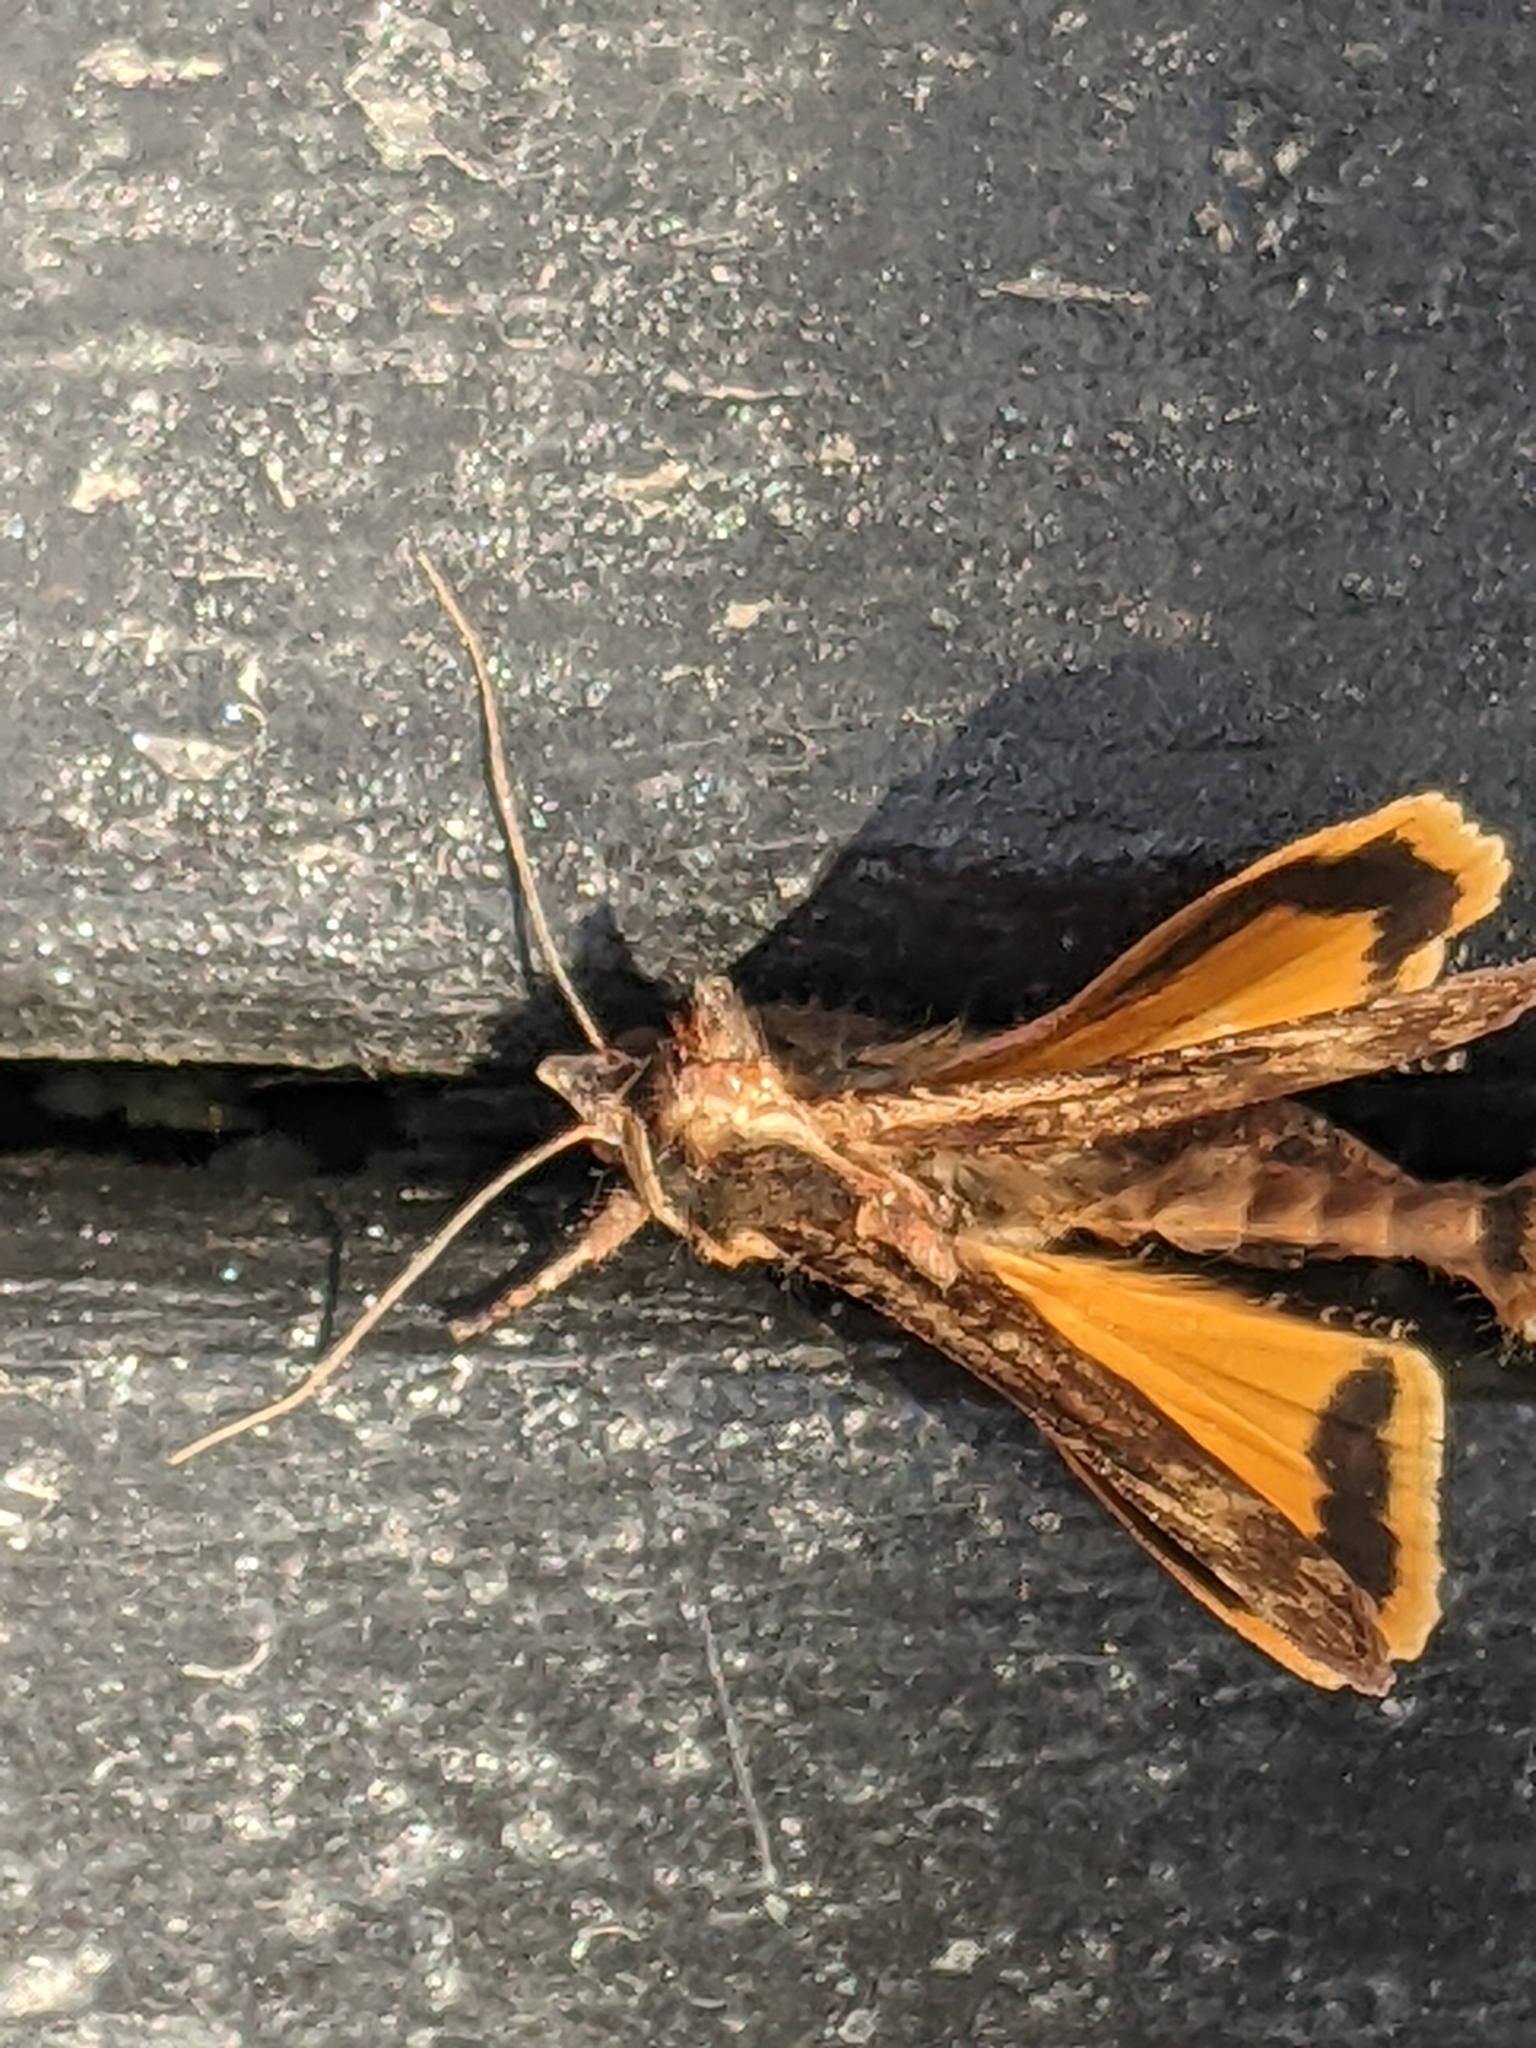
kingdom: Animalia
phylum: Arthropoda
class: Insecta
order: Lepidoptera
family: Noctuidae
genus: Noctua
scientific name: Noctua pronuba
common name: Large yellow underwing
